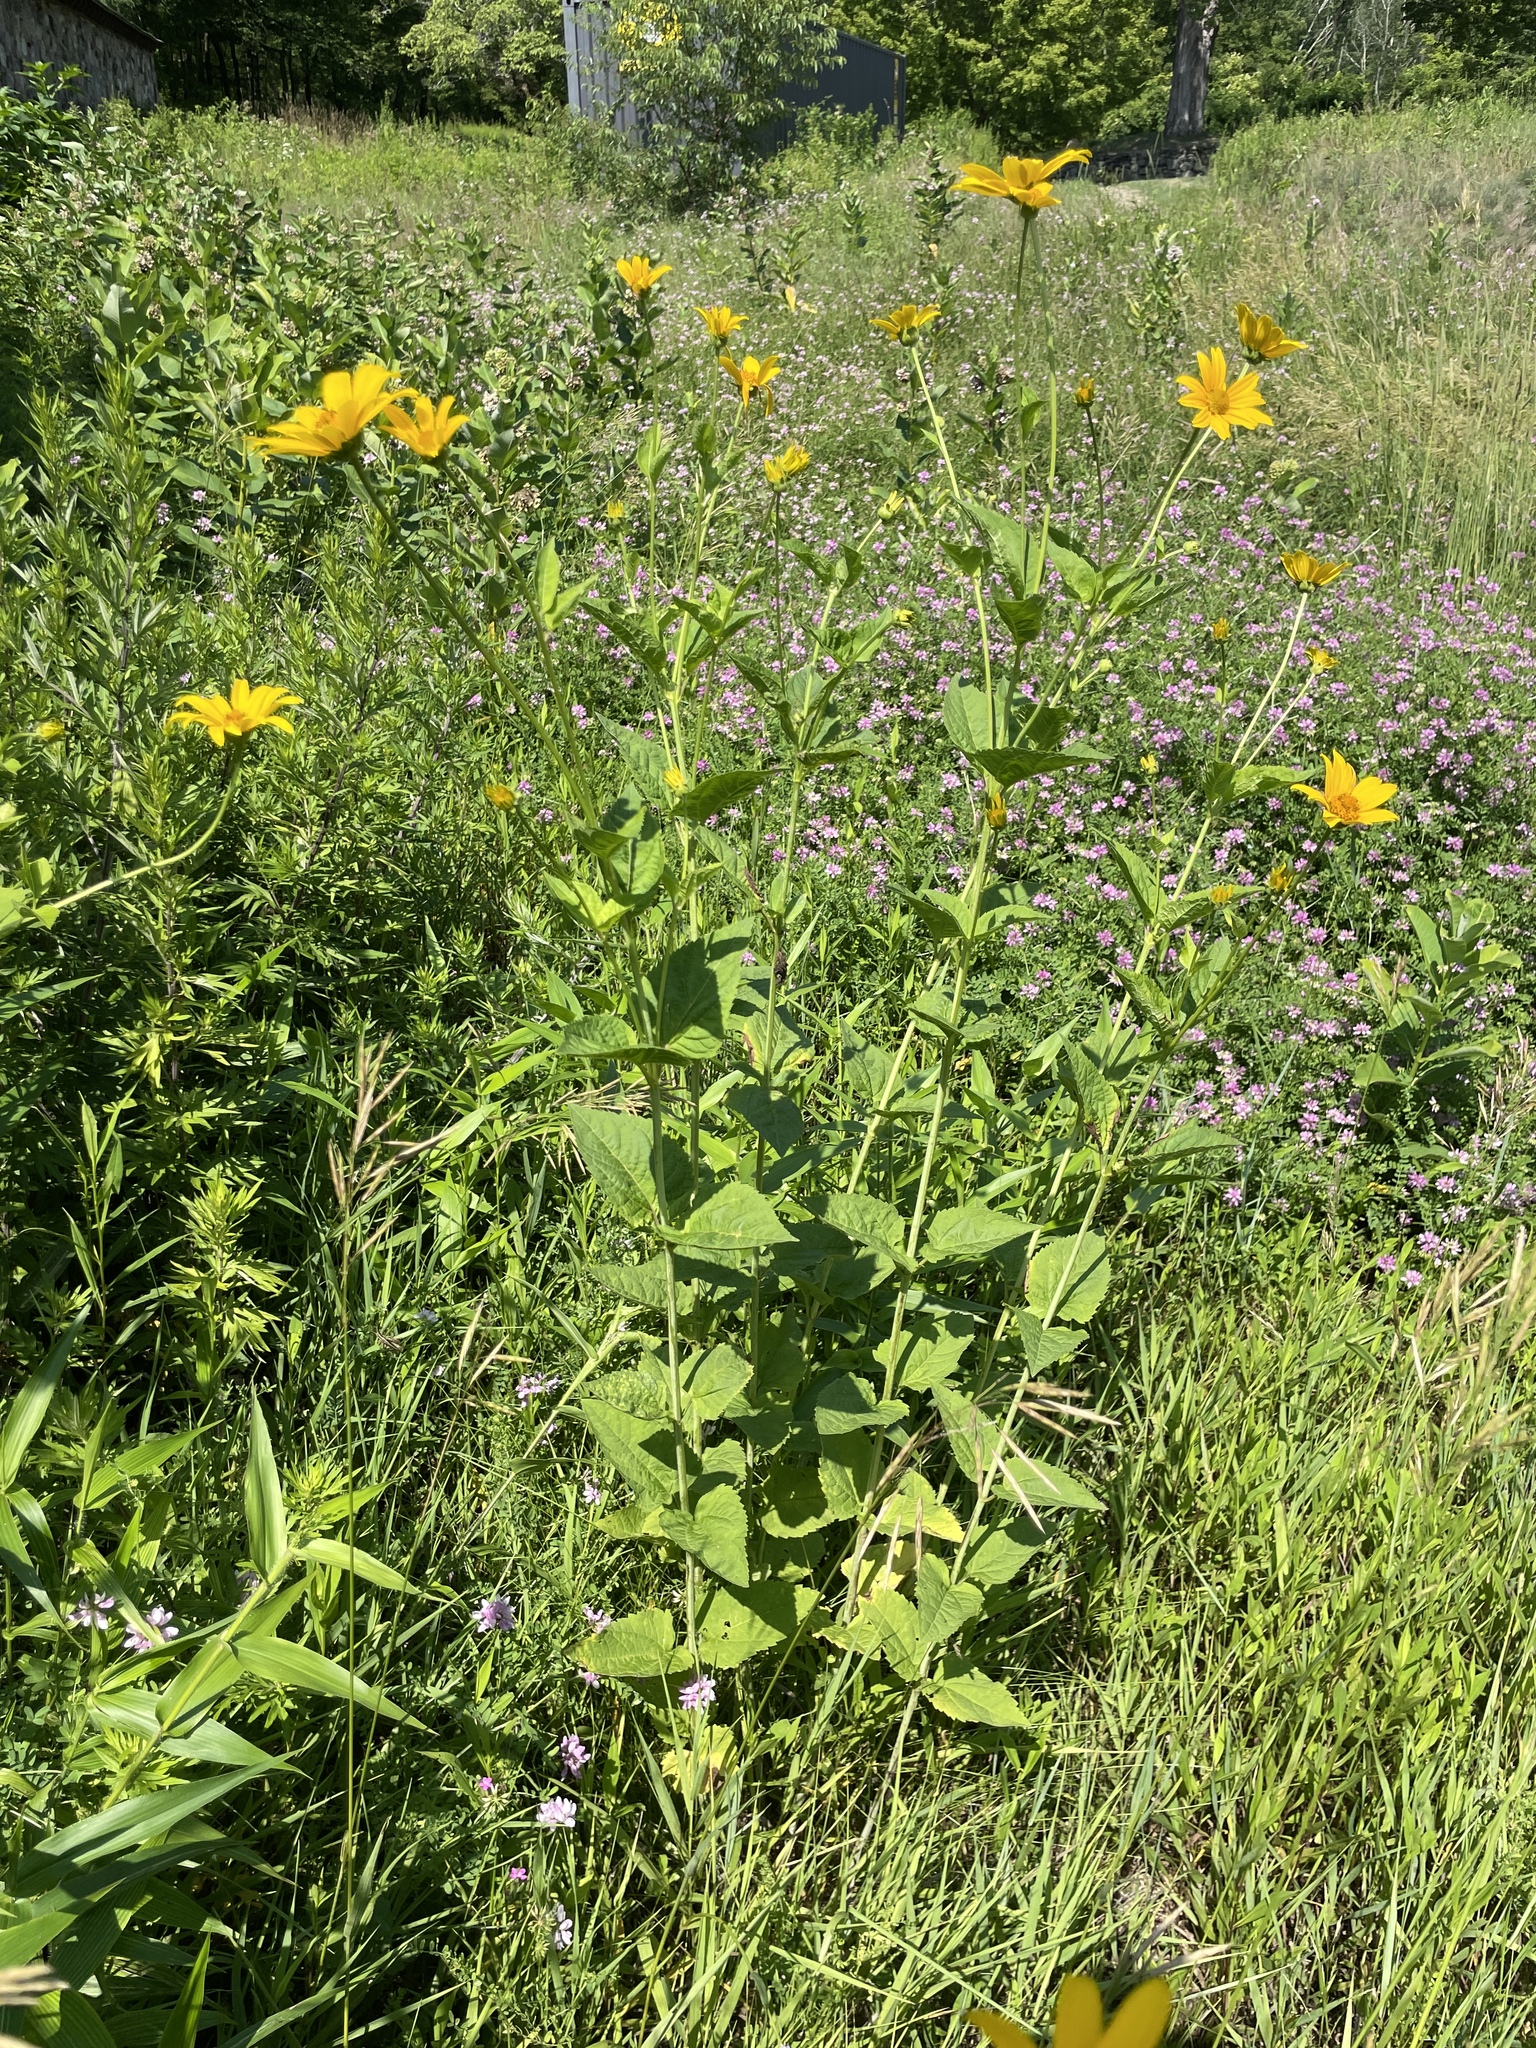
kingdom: Plantae
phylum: Tracheophyta
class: Magnoliopsida
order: Asterales
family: Asteraceae
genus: Heliopsis
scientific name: Heliopsis helianthoides
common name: False sunflower
